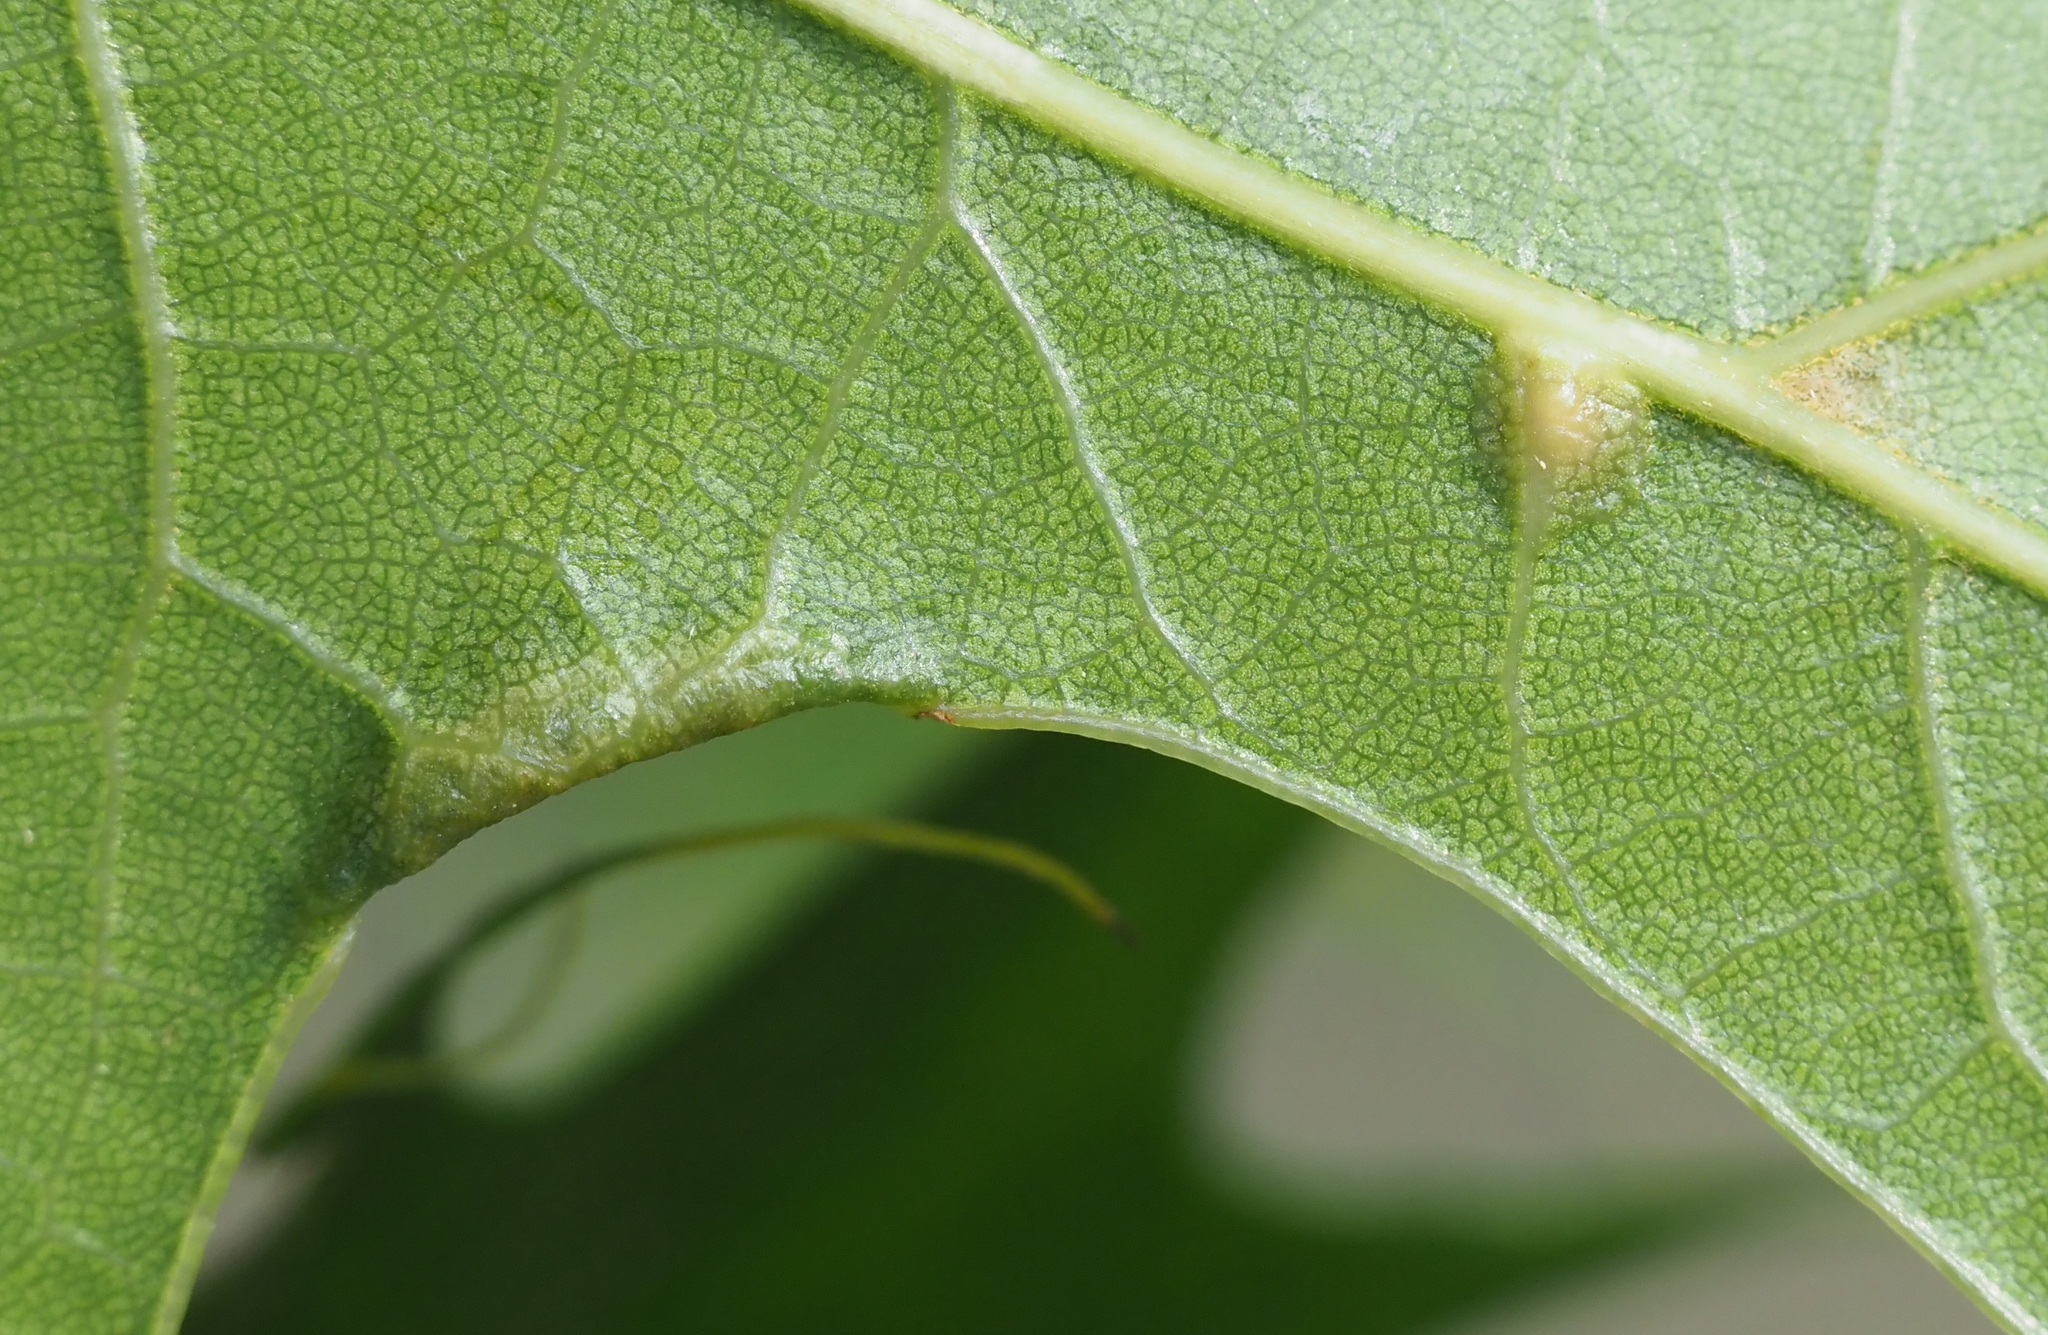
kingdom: Animalia
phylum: Arthropoda
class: Insecta
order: Diptera
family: Cecidomyiidae
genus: Polystepha
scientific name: Polystepha pilulae
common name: Oak leaf gall midge
